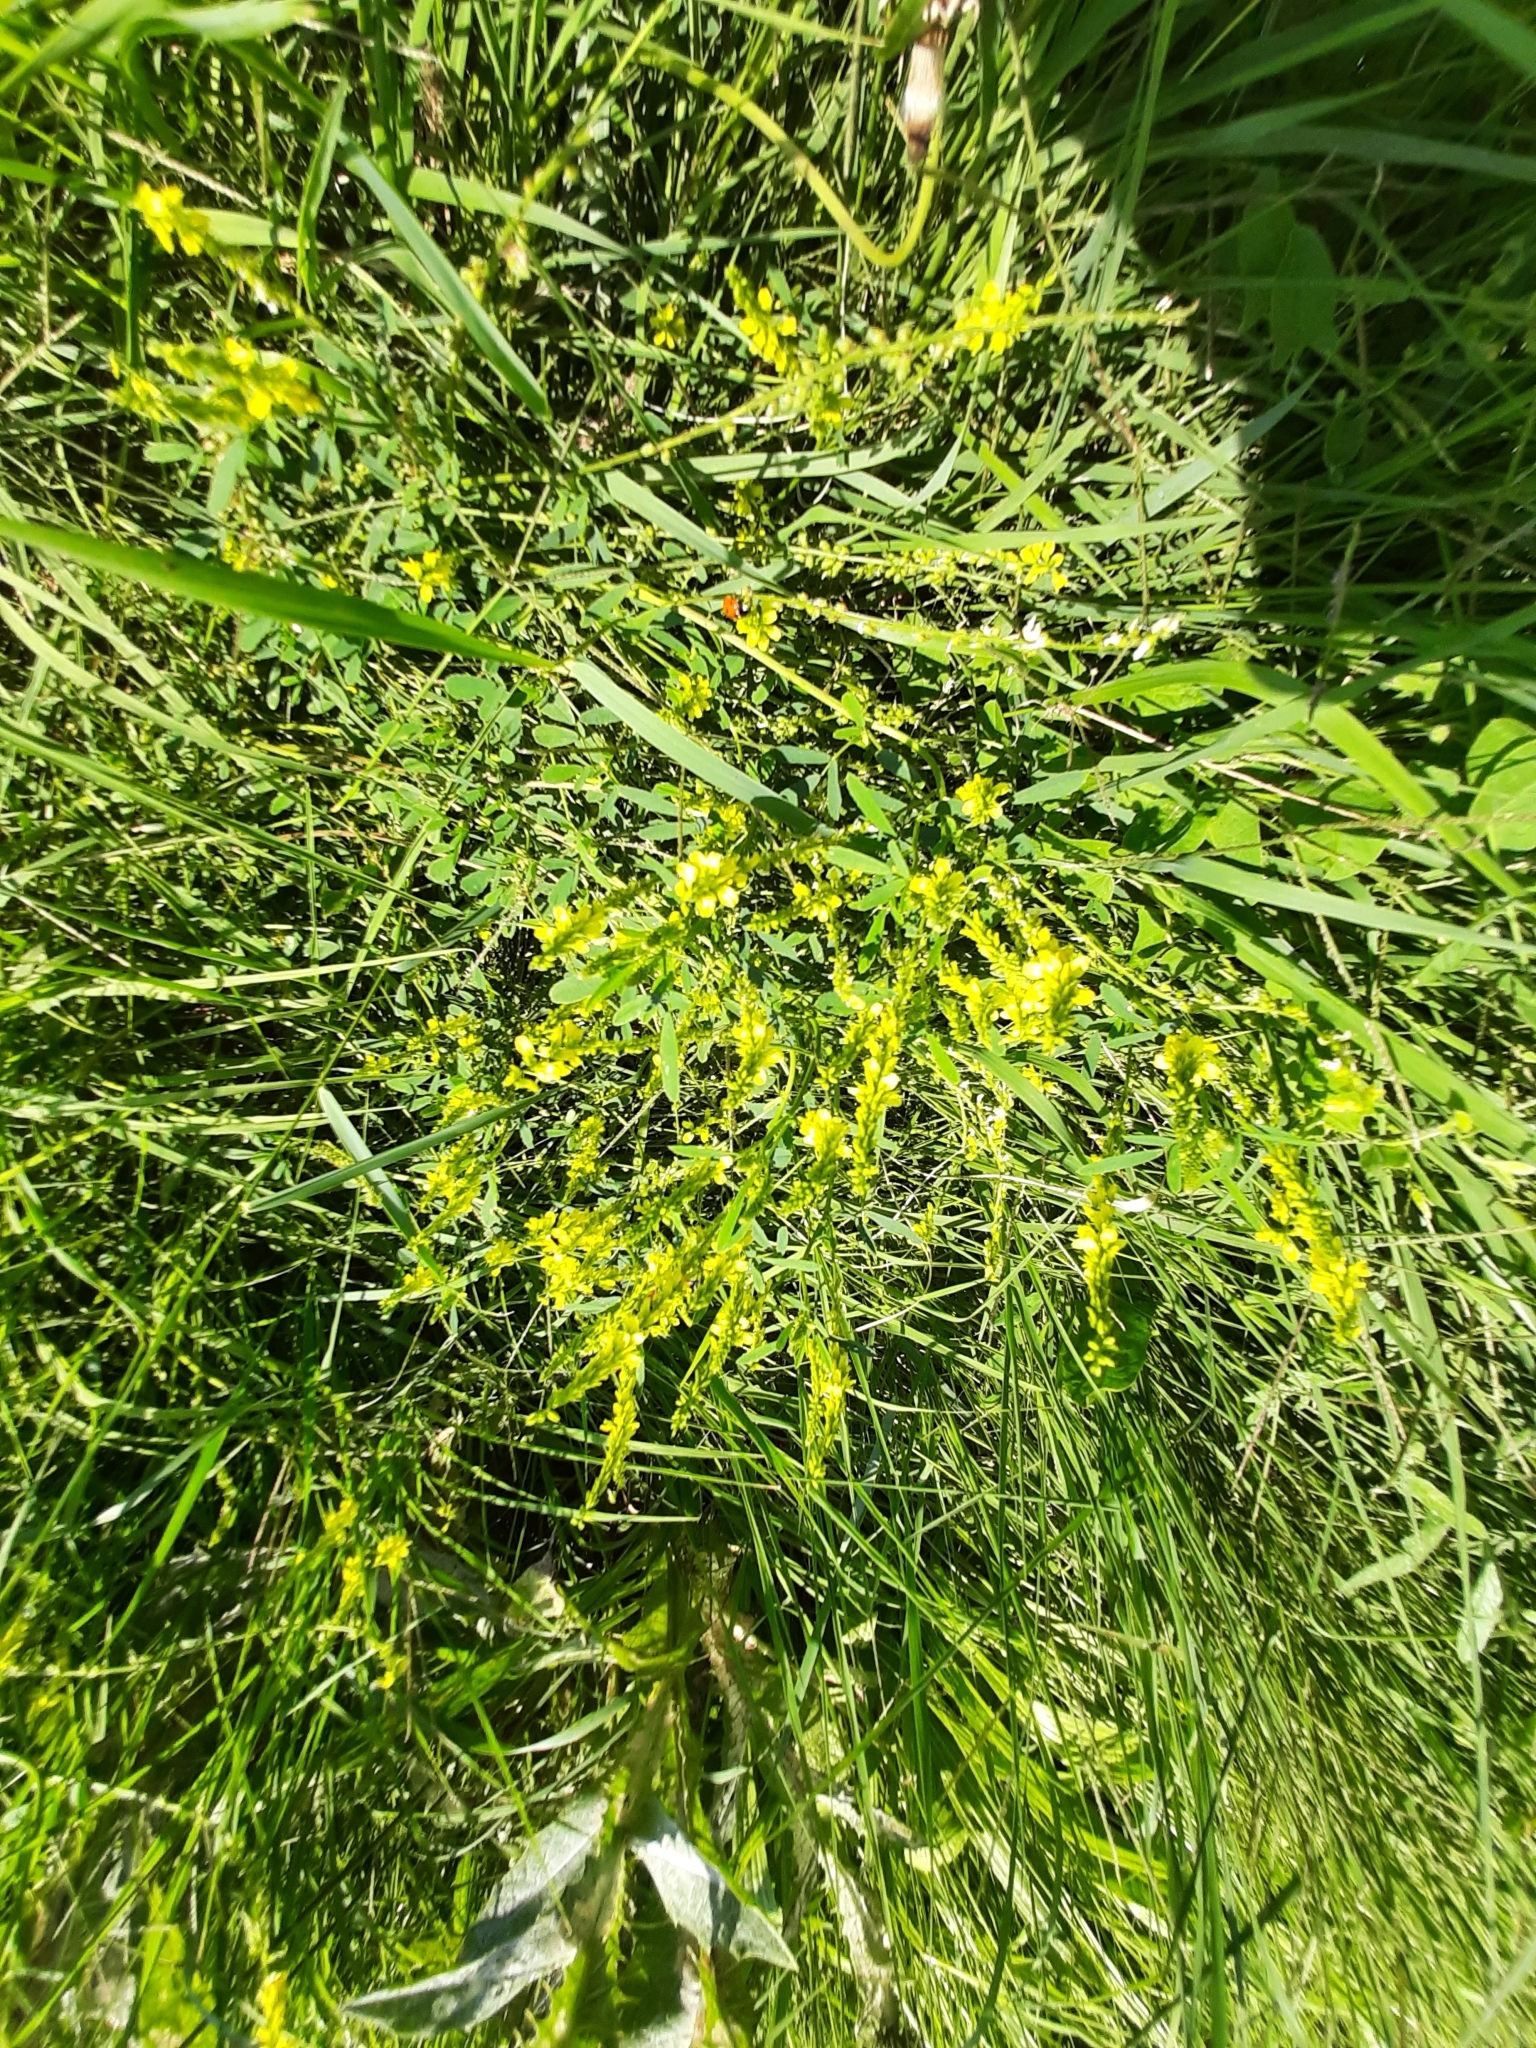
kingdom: Plantae
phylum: Tracheophyta
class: Magnoliopsida
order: Fabales
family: Fabaceae
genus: Melilotus
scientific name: Melilotus officinalis
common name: Sweetclover
